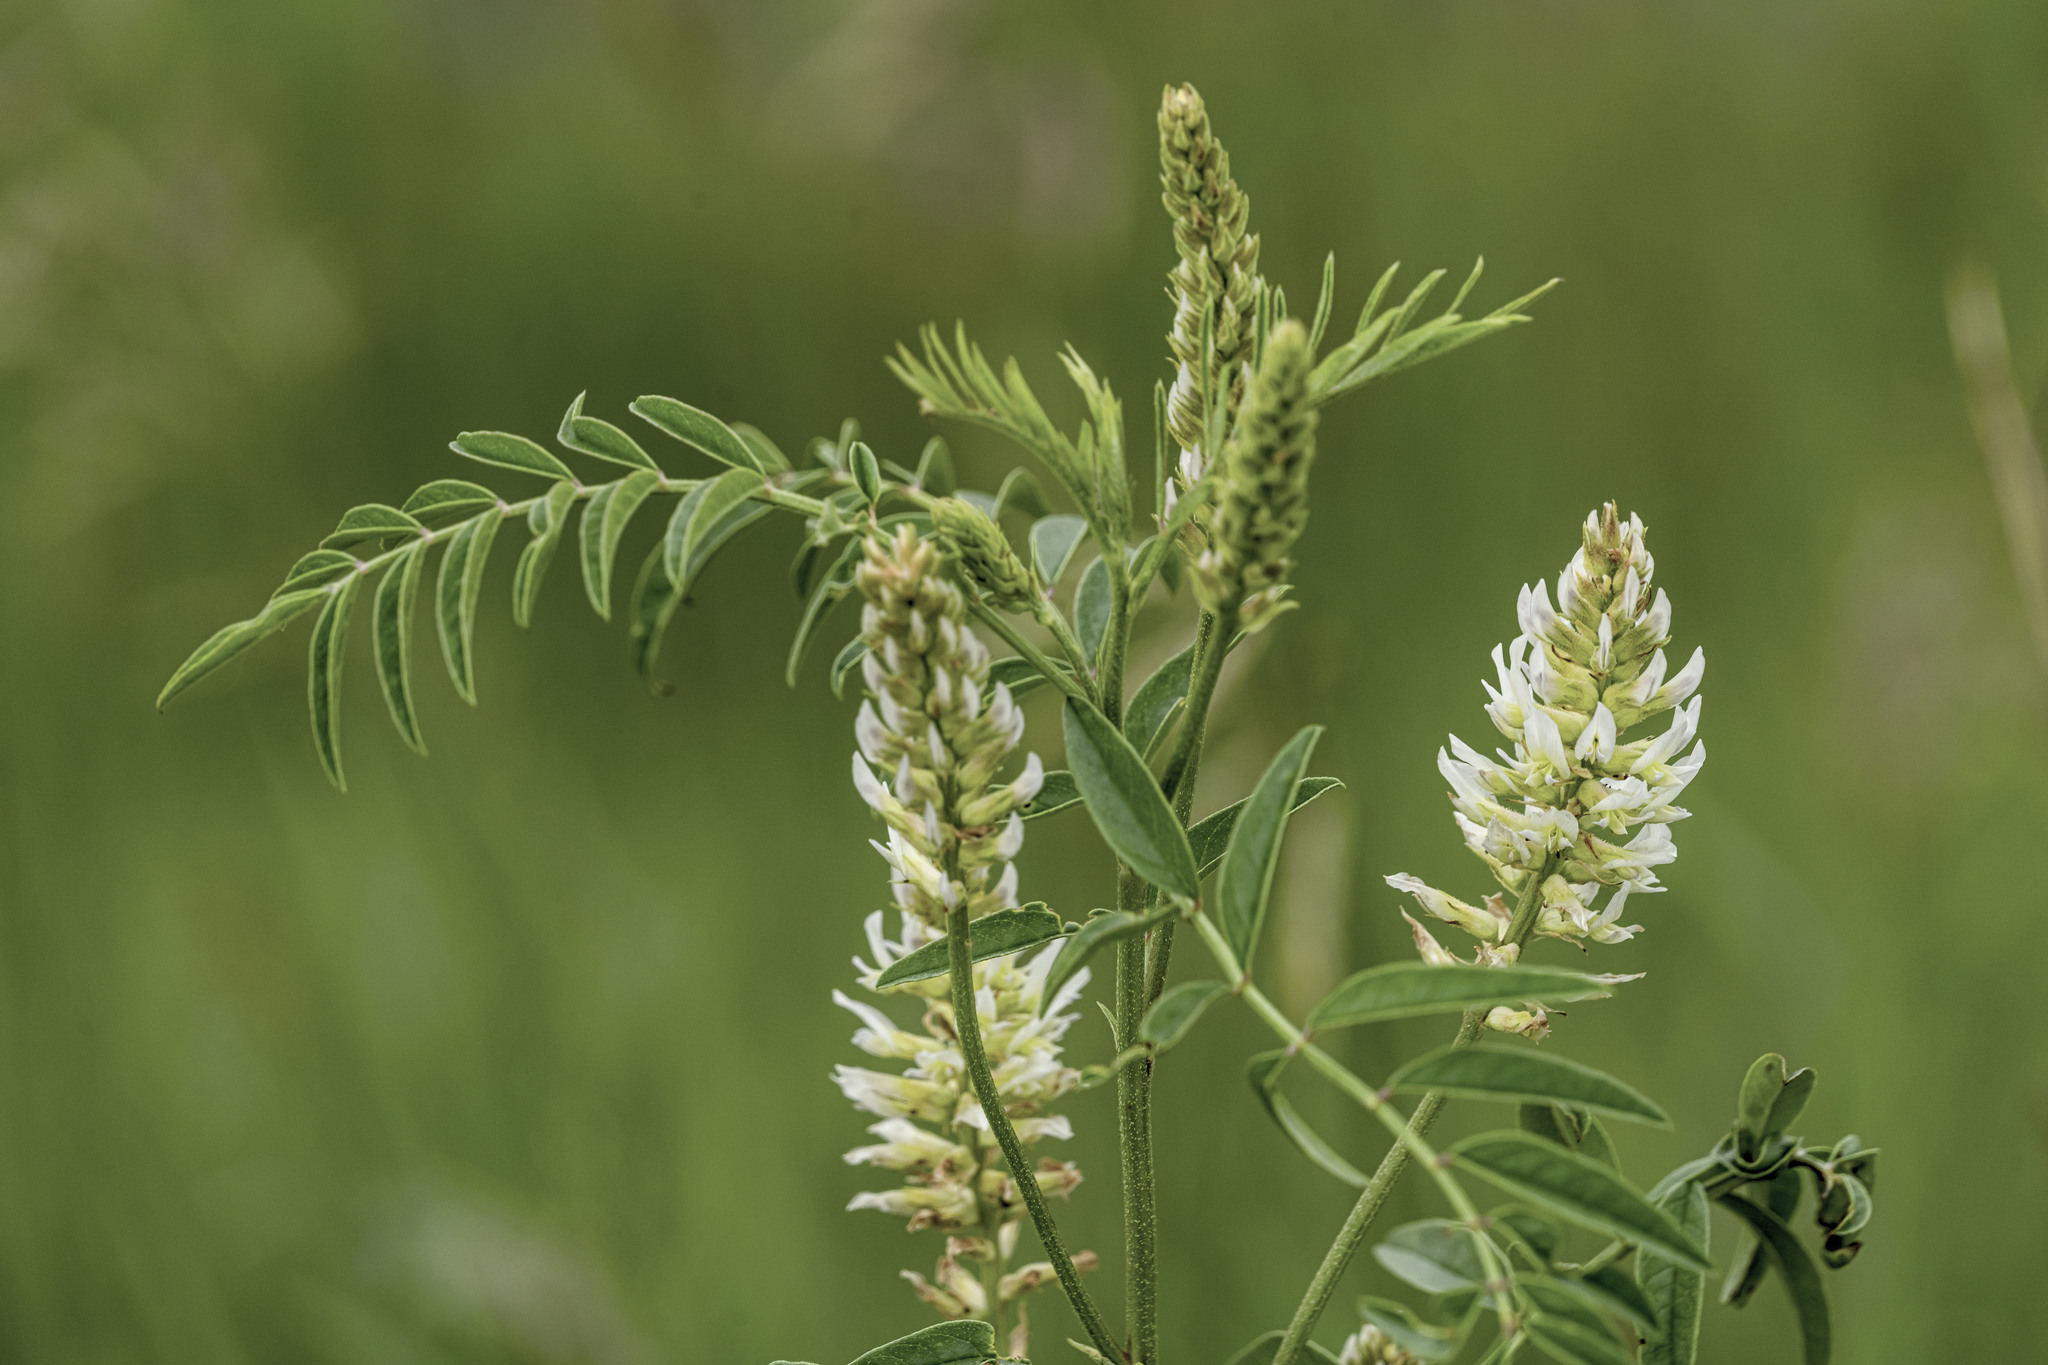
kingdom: Plantae
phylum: Tracheophyta
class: Magnoliopsida
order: Fabales
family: Fabaceae
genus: Glycyrrhiza
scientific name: Glycyrrhiza lepidota
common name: American liquorice
